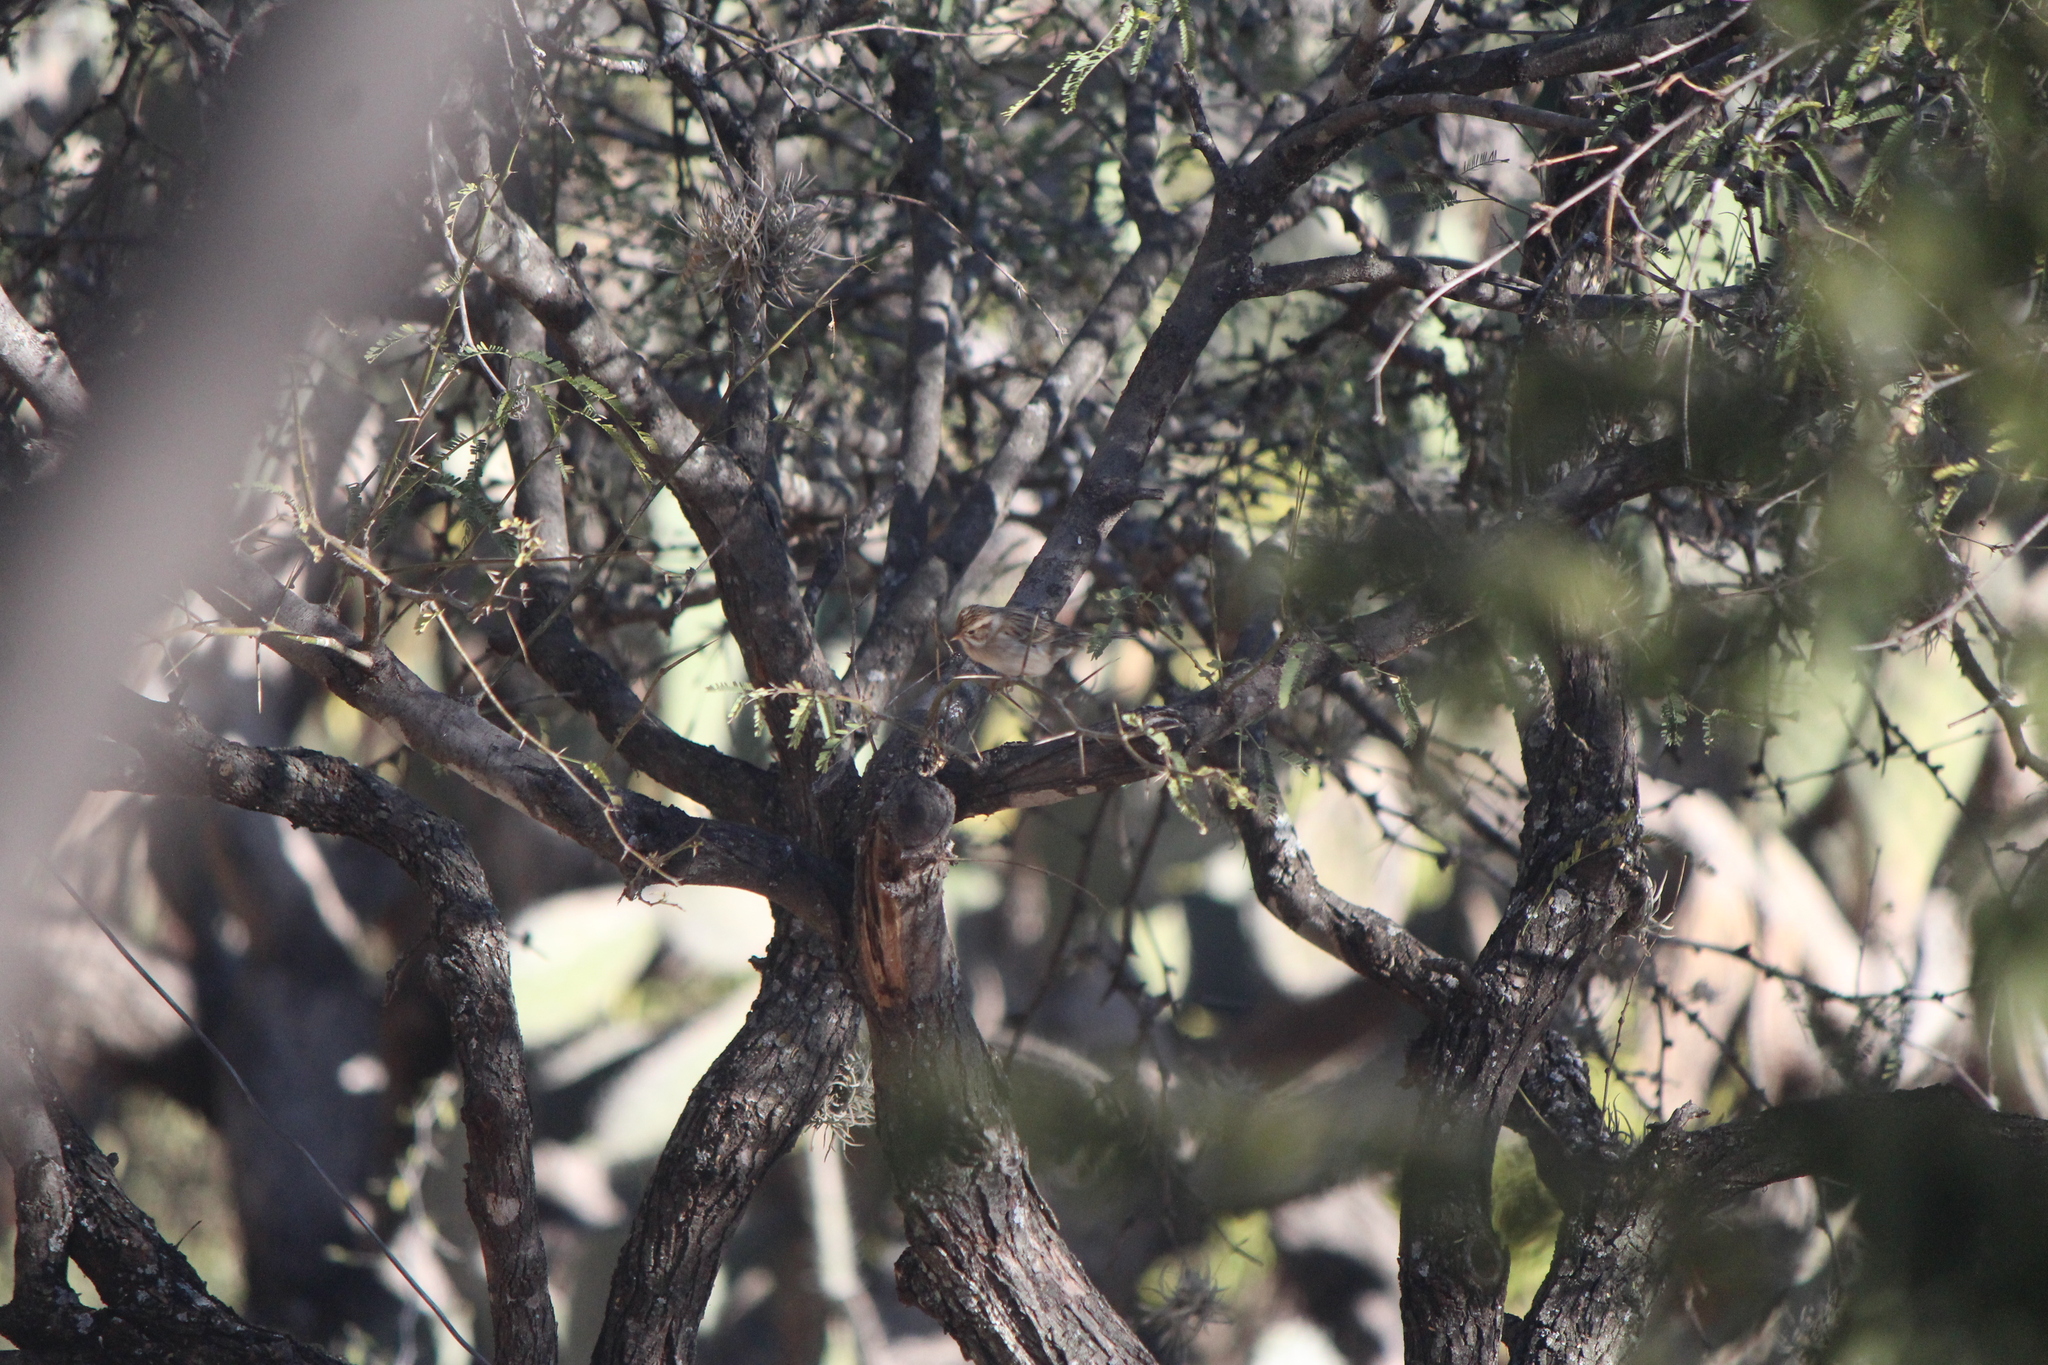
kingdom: Animalia
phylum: Chordata
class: Aves
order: Passeriformes
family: Passerellidae
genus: Spizella
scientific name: Spizella pallida
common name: Clay-colored sparrow
